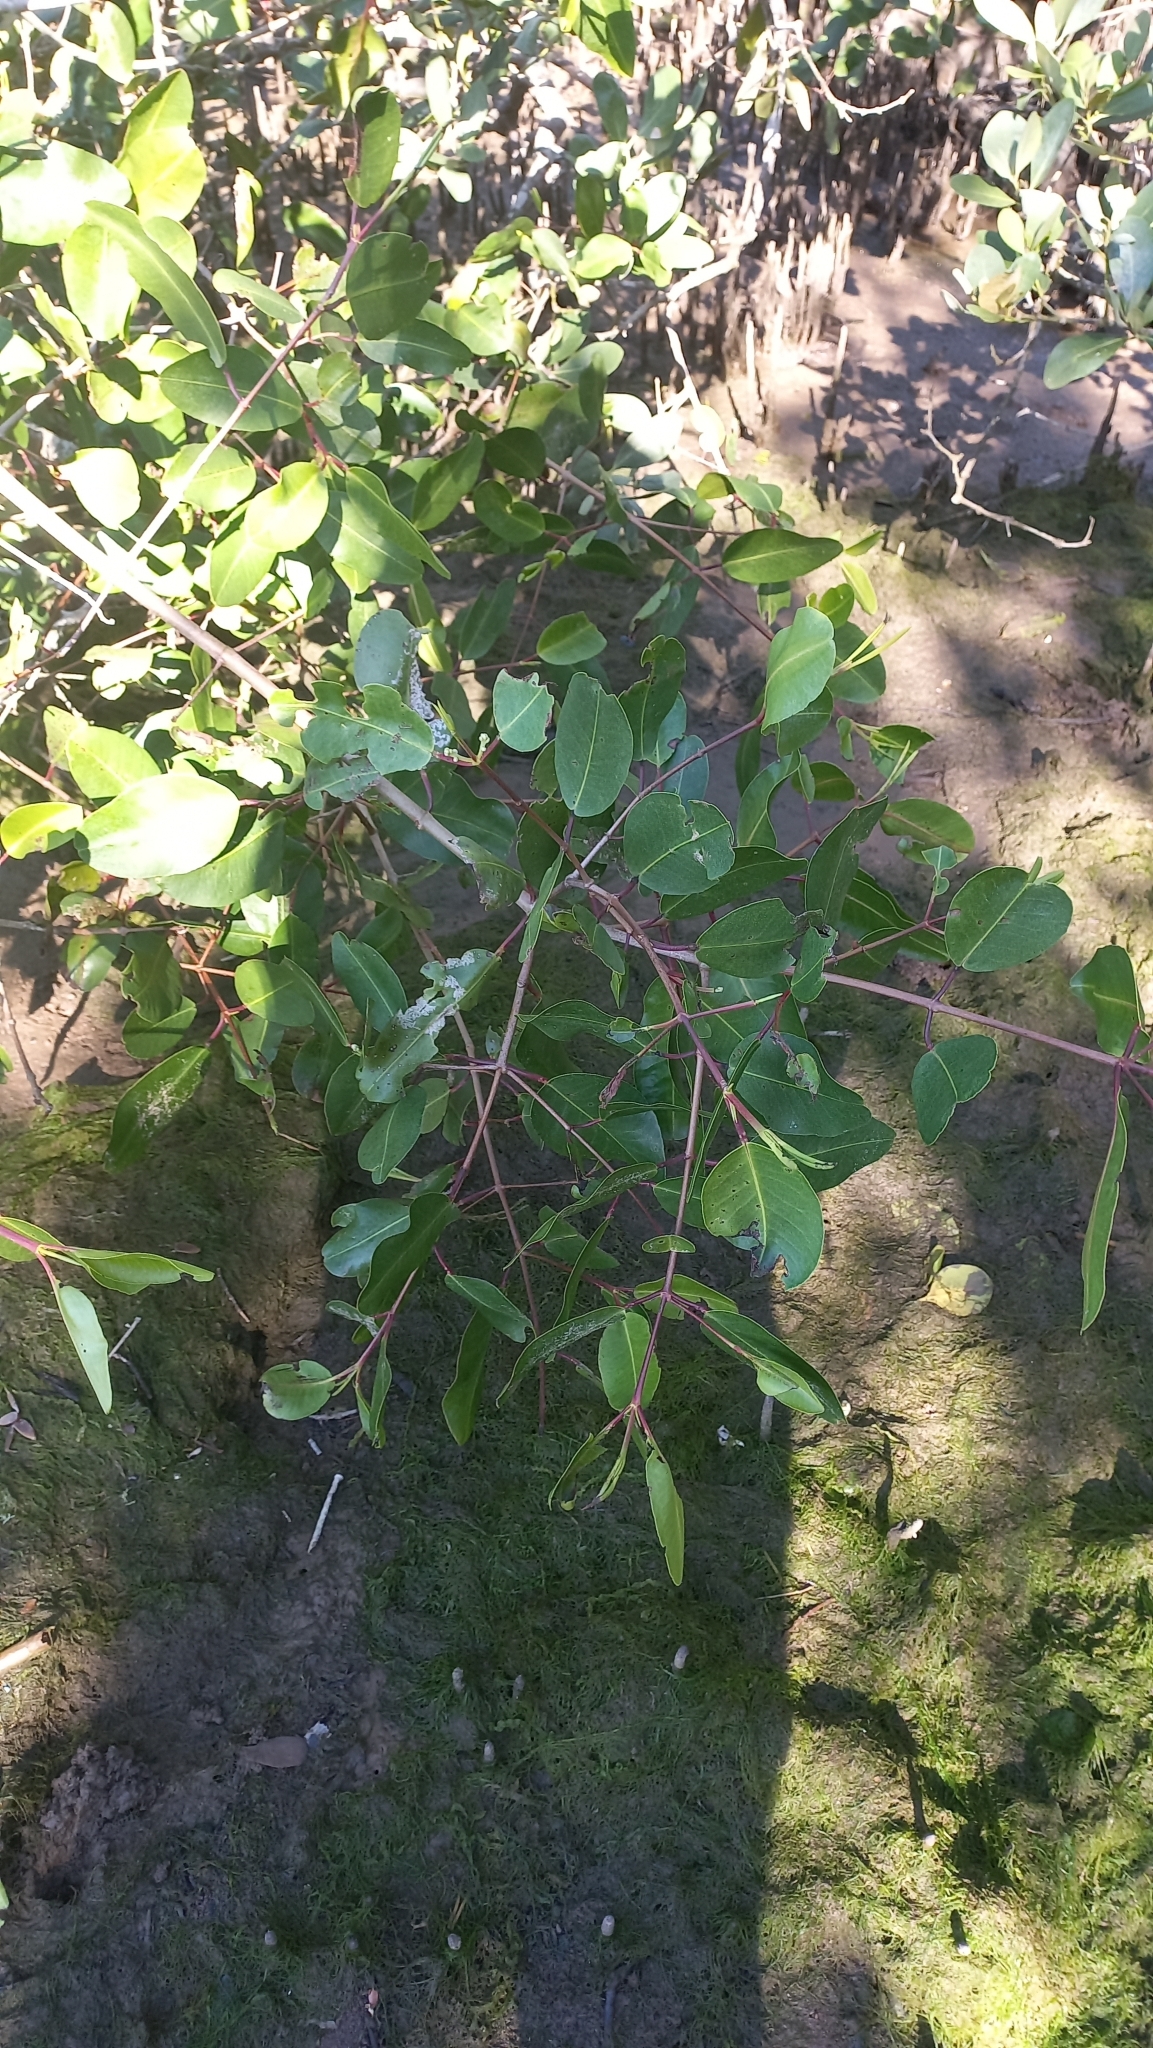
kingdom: Plantae
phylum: Tracheophyta
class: Magnoliopsida
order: Myrtales
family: Combretaceae
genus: Laguncularia
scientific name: Laguncularia racemosa
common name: White mangrove
